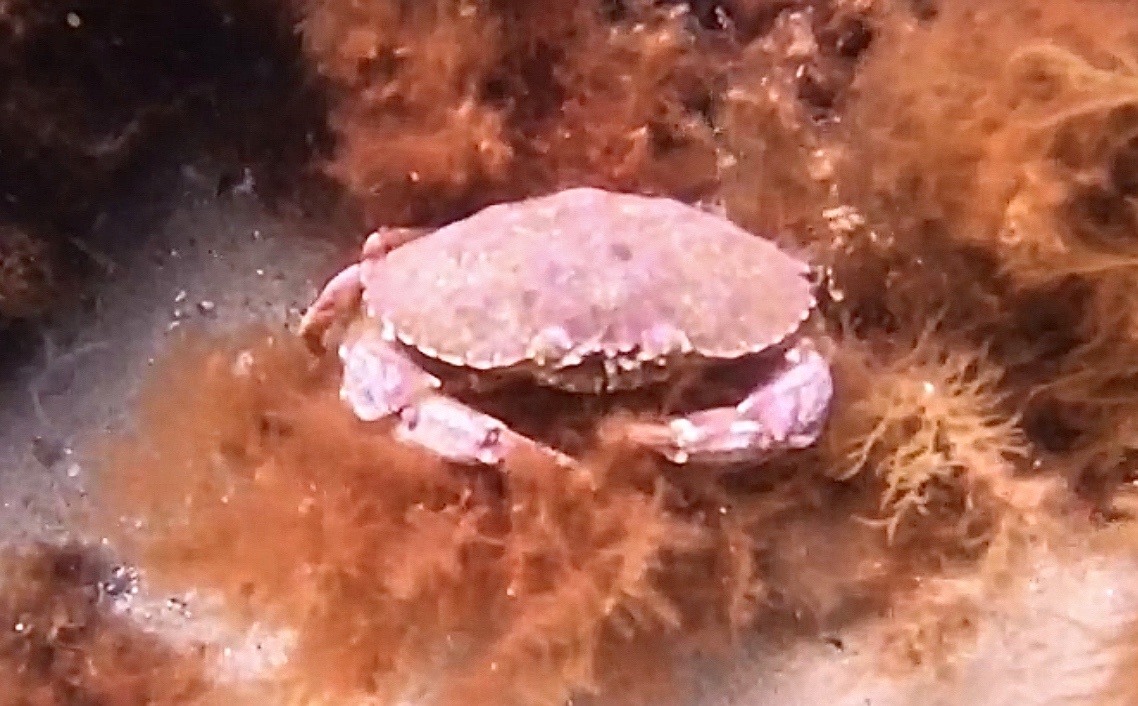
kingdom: Animalia
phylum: Arthropoda
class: Malacostraca
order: Decapoda
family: Cancridae
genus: Cancer
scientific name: Cancer borealis
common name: Jonah crab
